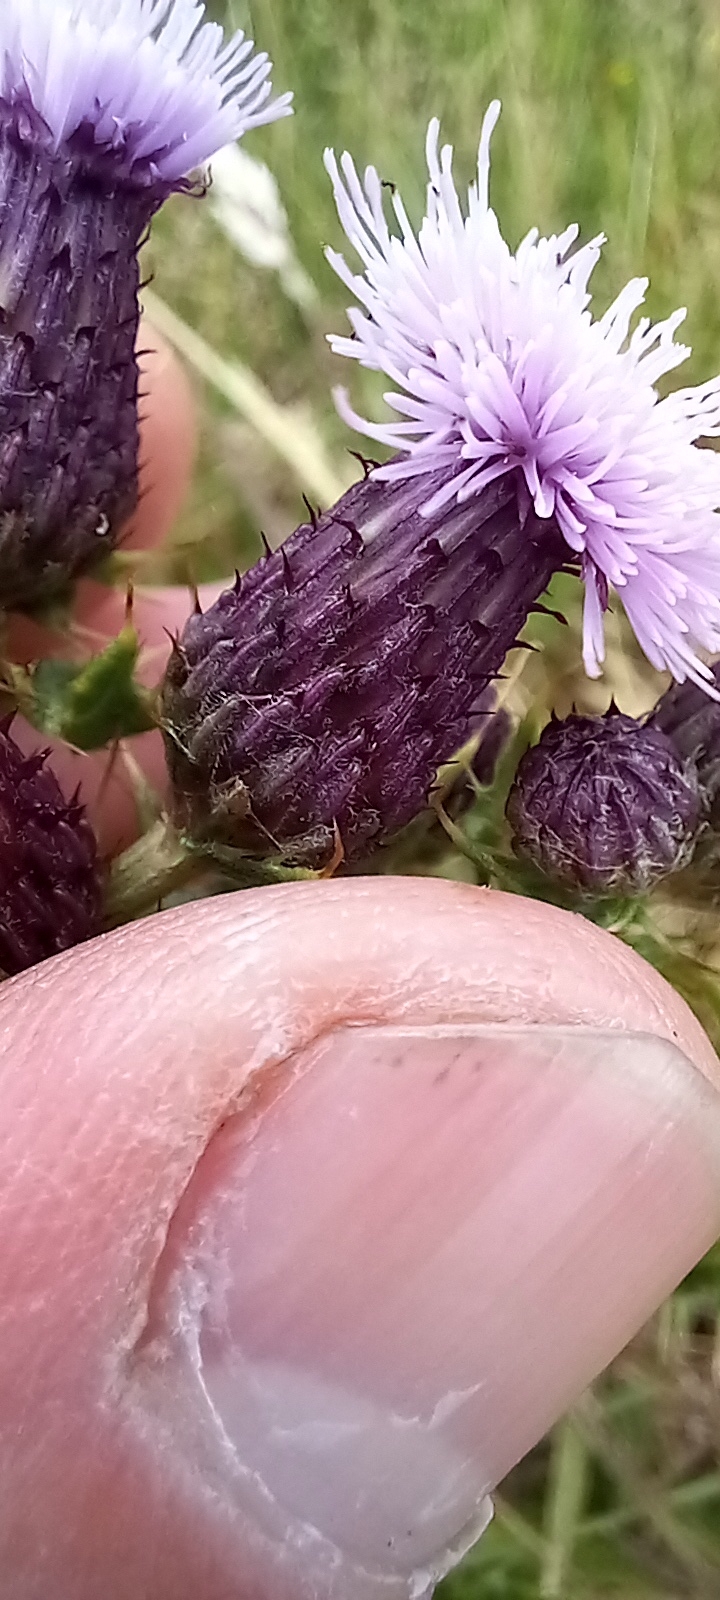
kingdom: Plantae
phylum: Tracheophyta
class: Magnoliopsida
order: Asterales
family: Asteraceae
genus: Cirsium
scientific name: Cirsium arvense
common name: Creeping thistle
